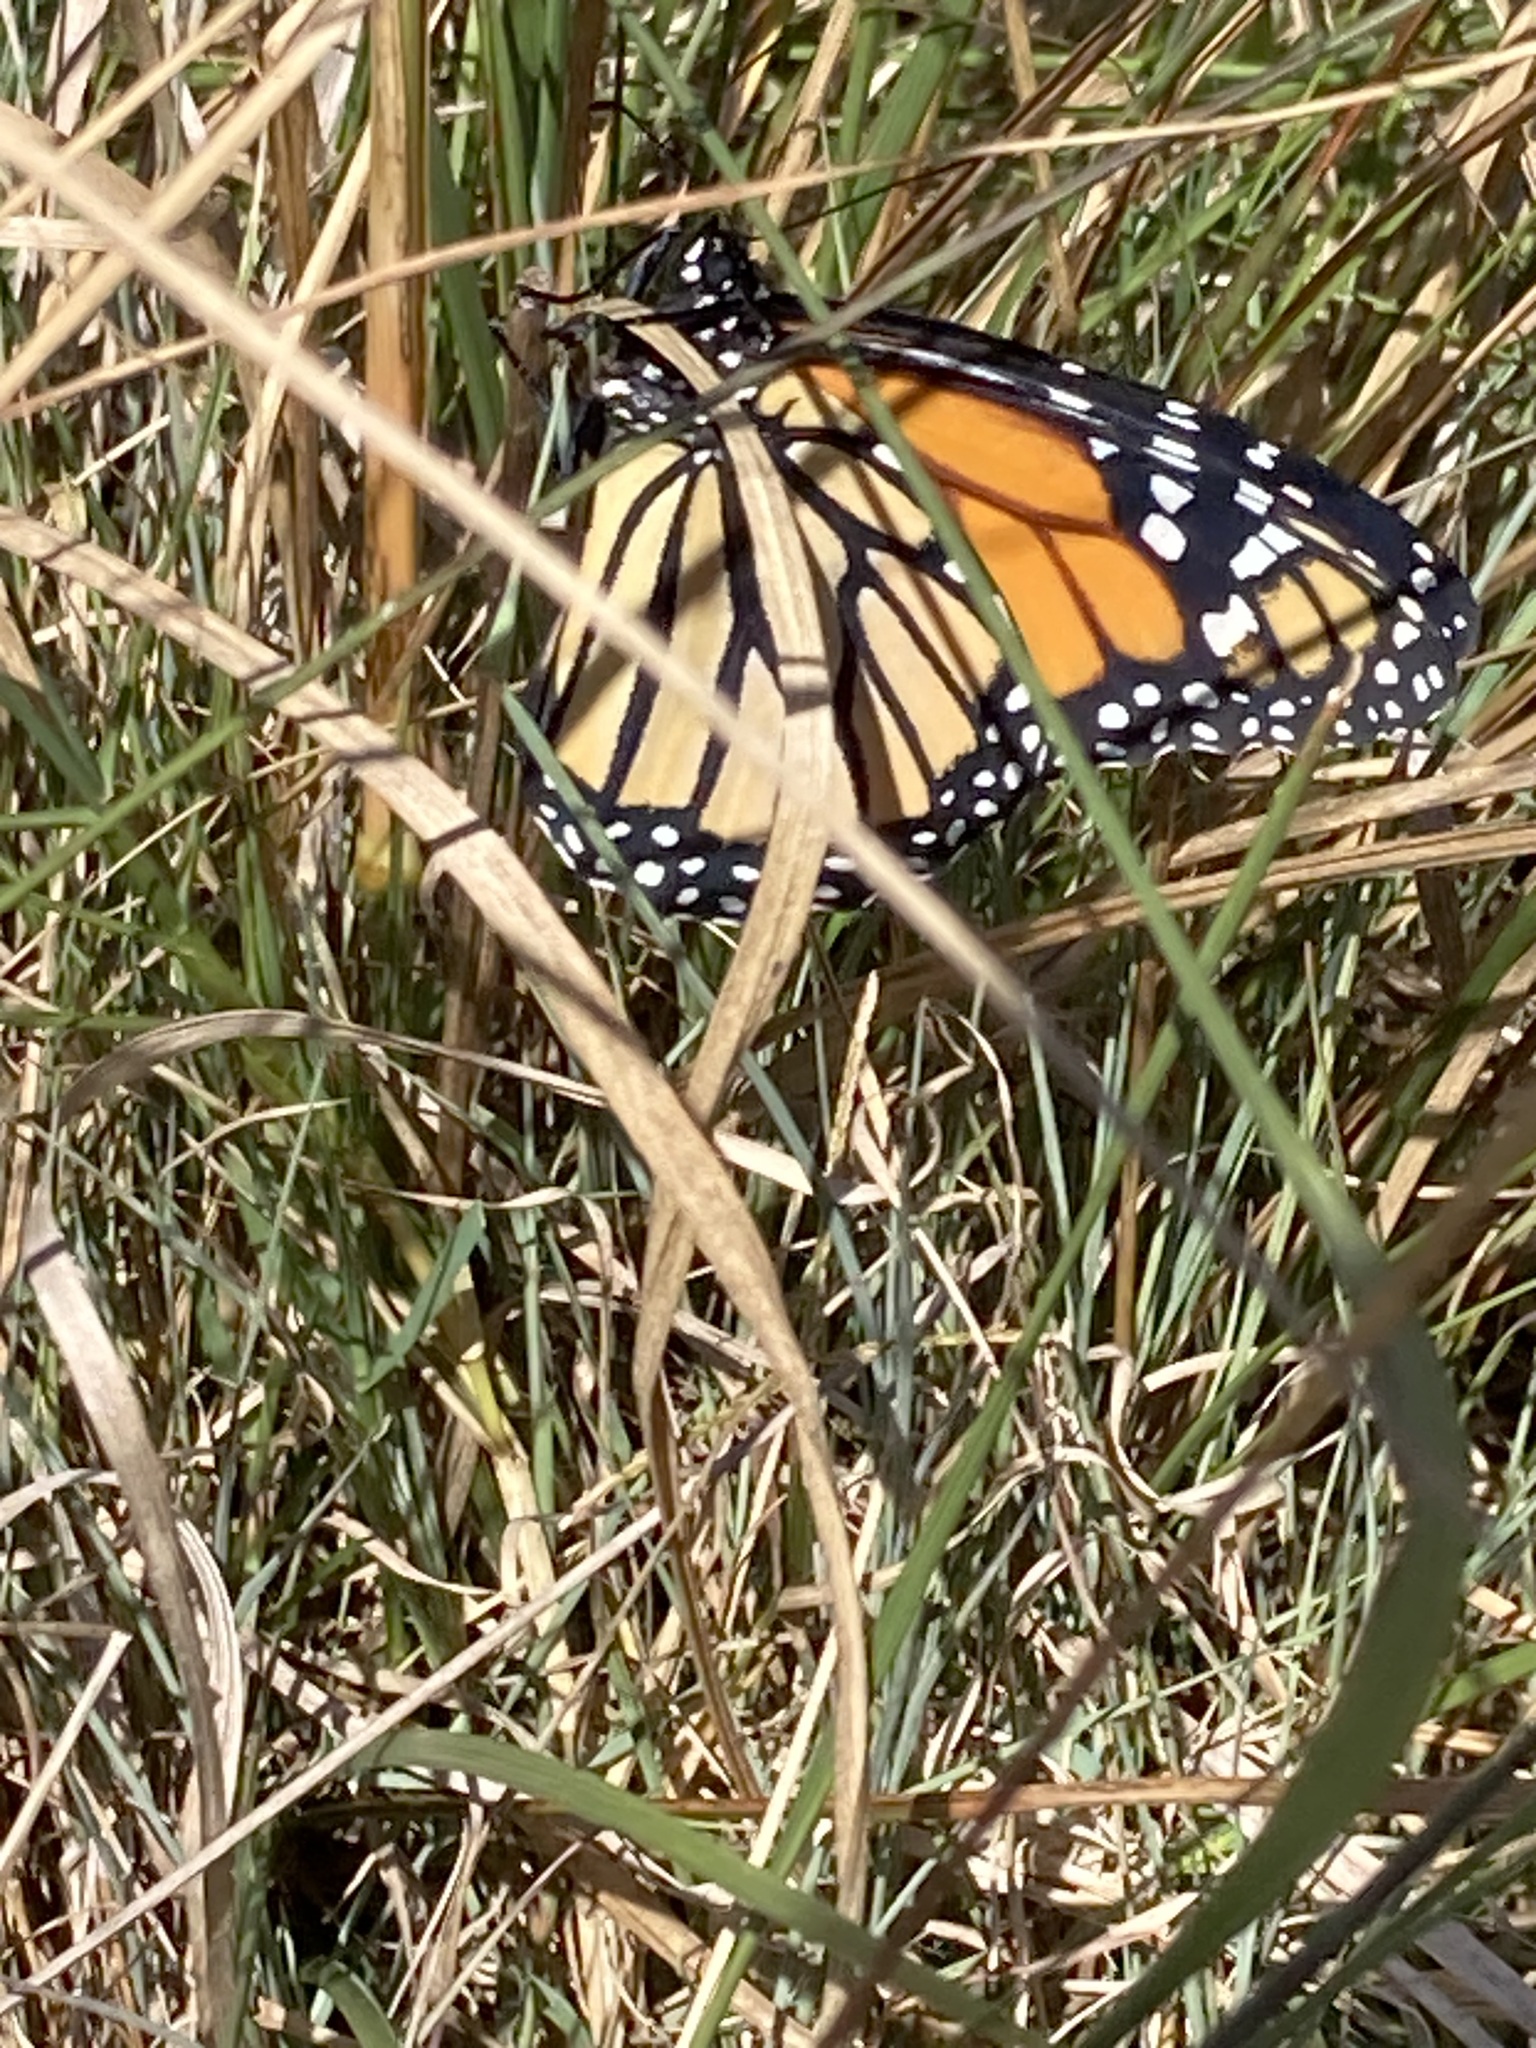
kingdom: Animalia
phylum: Arthropoda
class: Insecta
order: Lepidoptera
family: Nymphalidae
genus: Danaus
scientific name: Danaus plexippus
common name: Monarch
